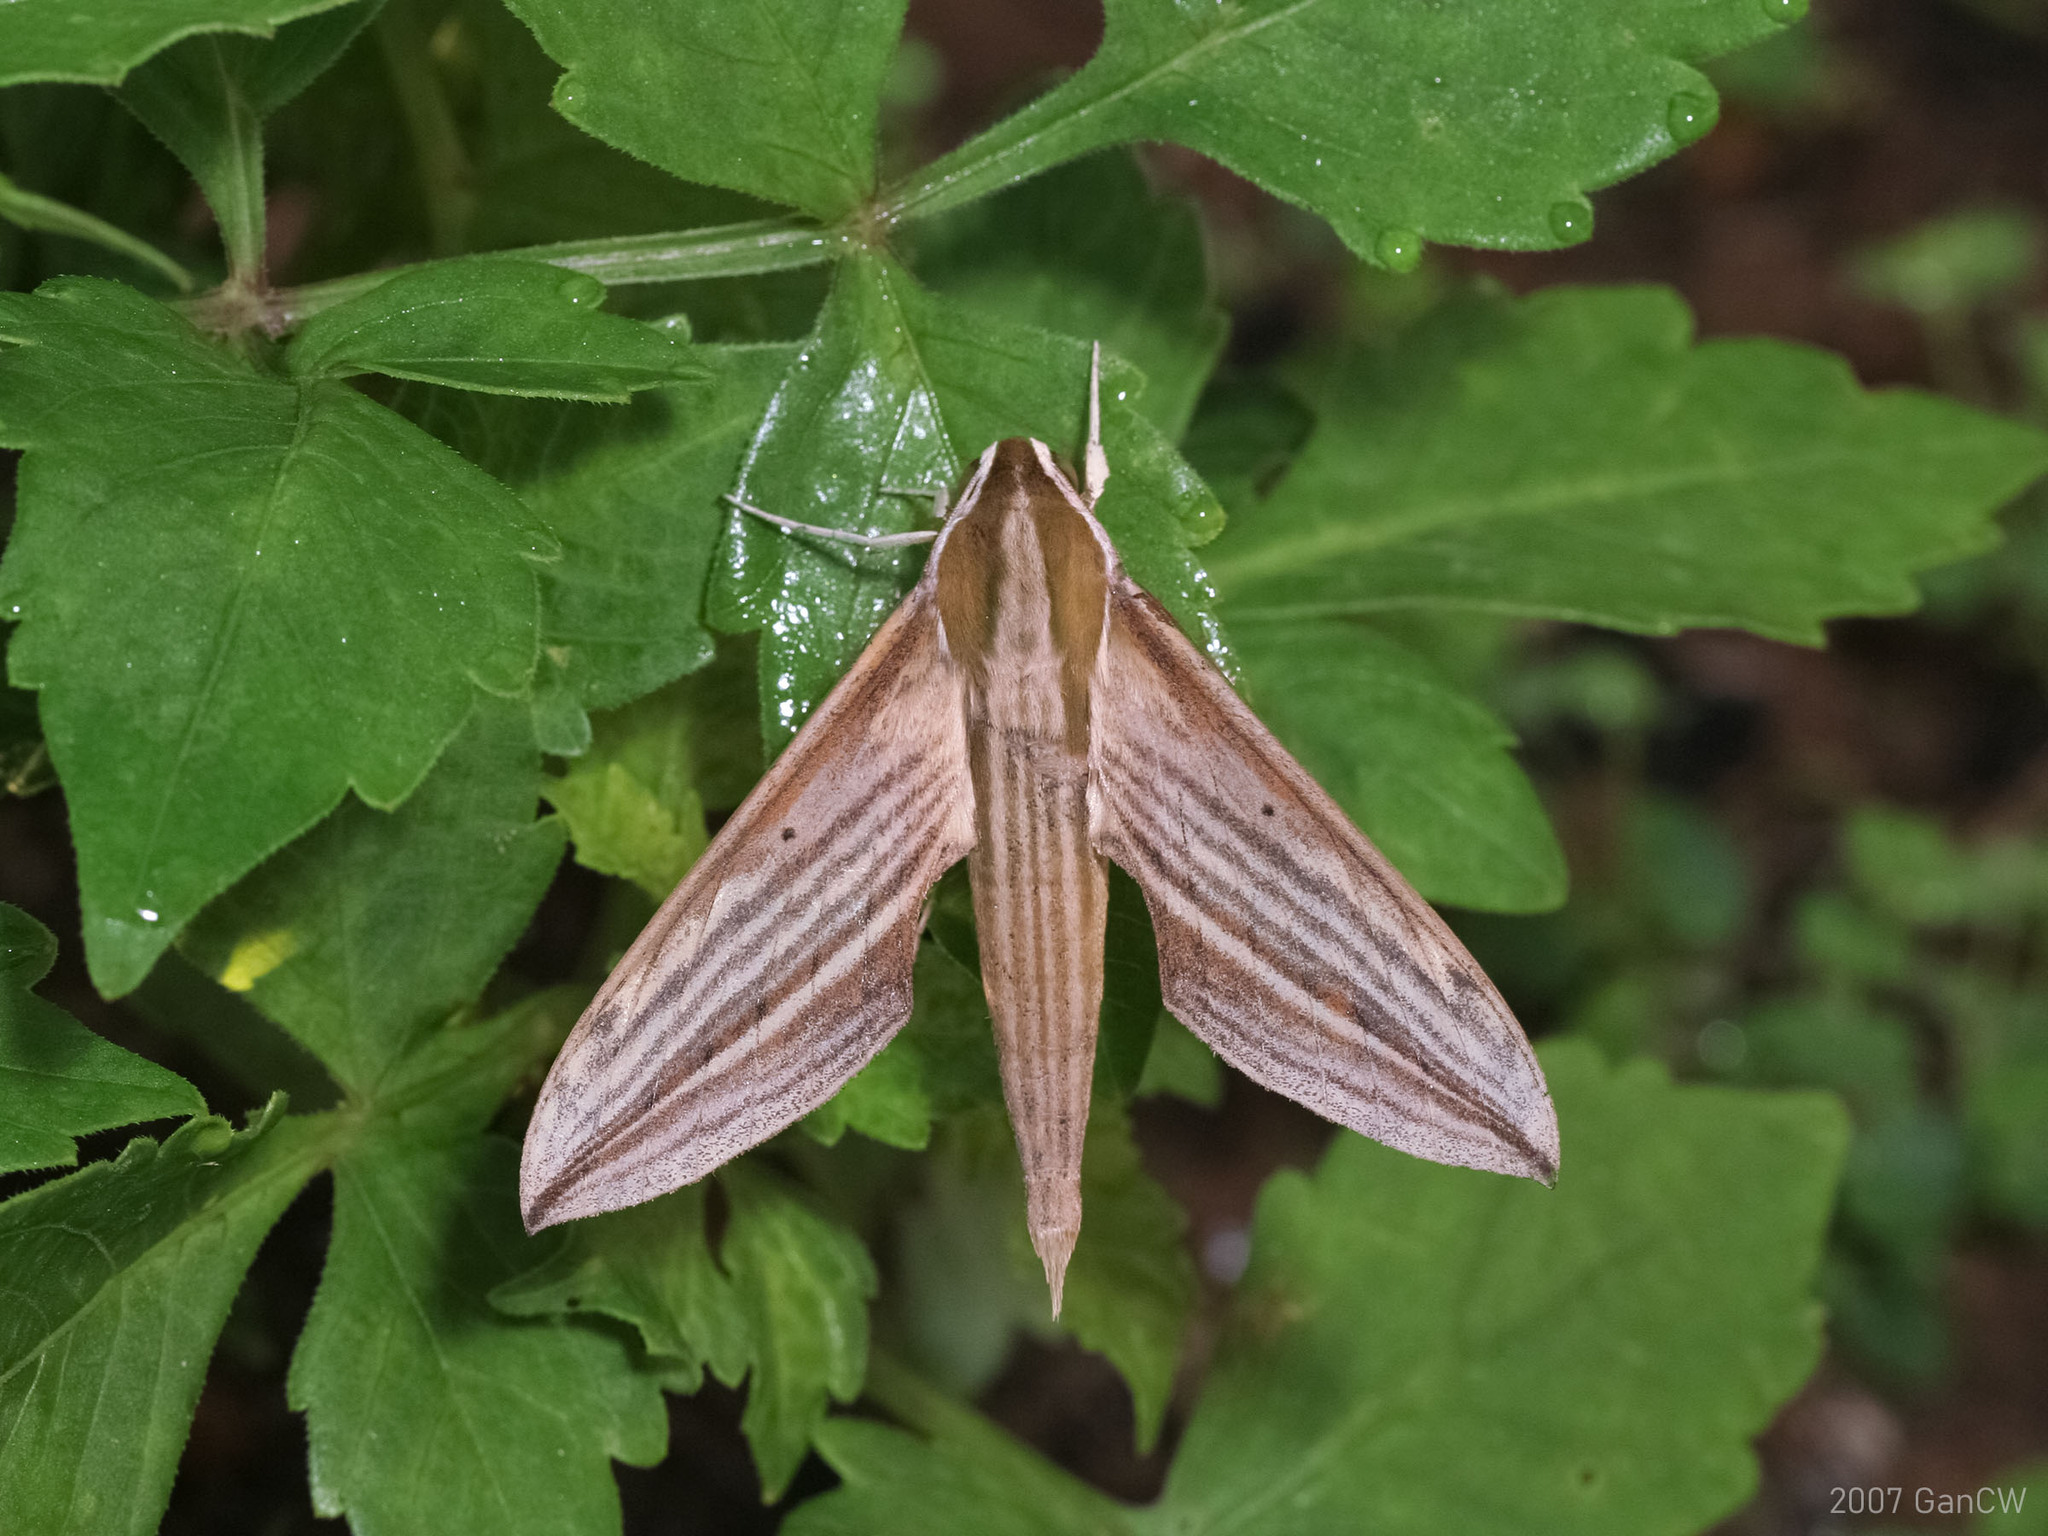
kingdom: Animalia
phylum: Arthropoda
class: Insecta
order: Lepidoptera
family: Sphingidae
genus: Cechetra
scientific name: Cechetra lineosa
